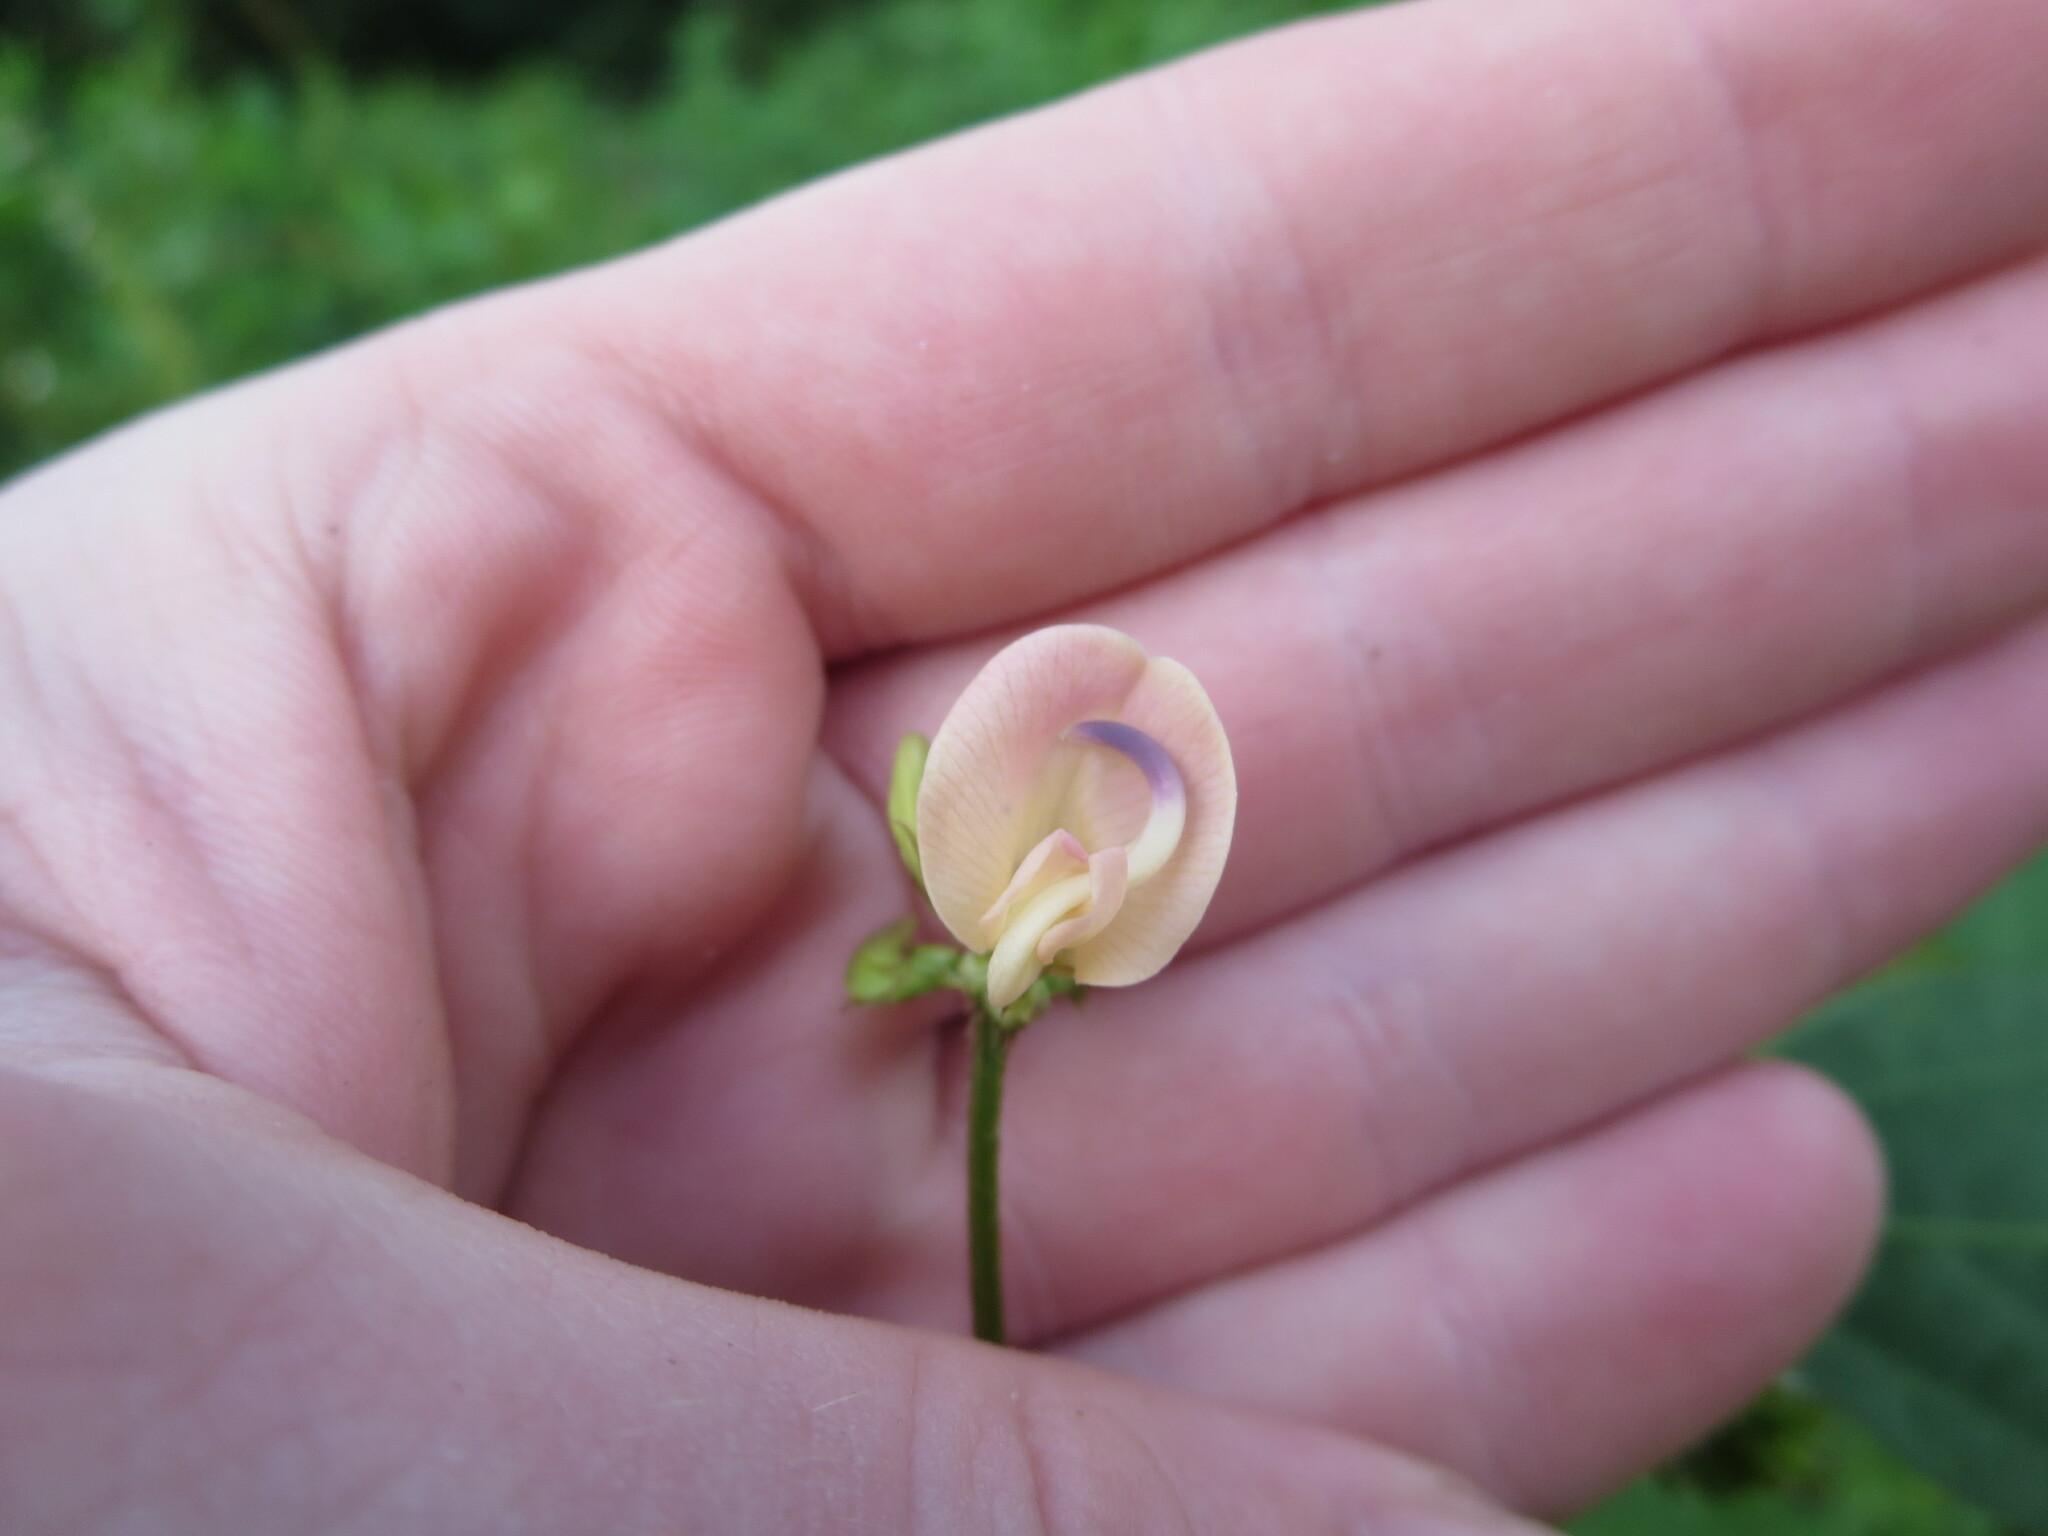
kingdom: Plantae
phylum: Tracheophyta
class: Magnoliopsida
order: Fabales
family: Fabaceae
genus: Strophostyles
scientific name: Strophostyles helvola
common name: Trailing wild bean
